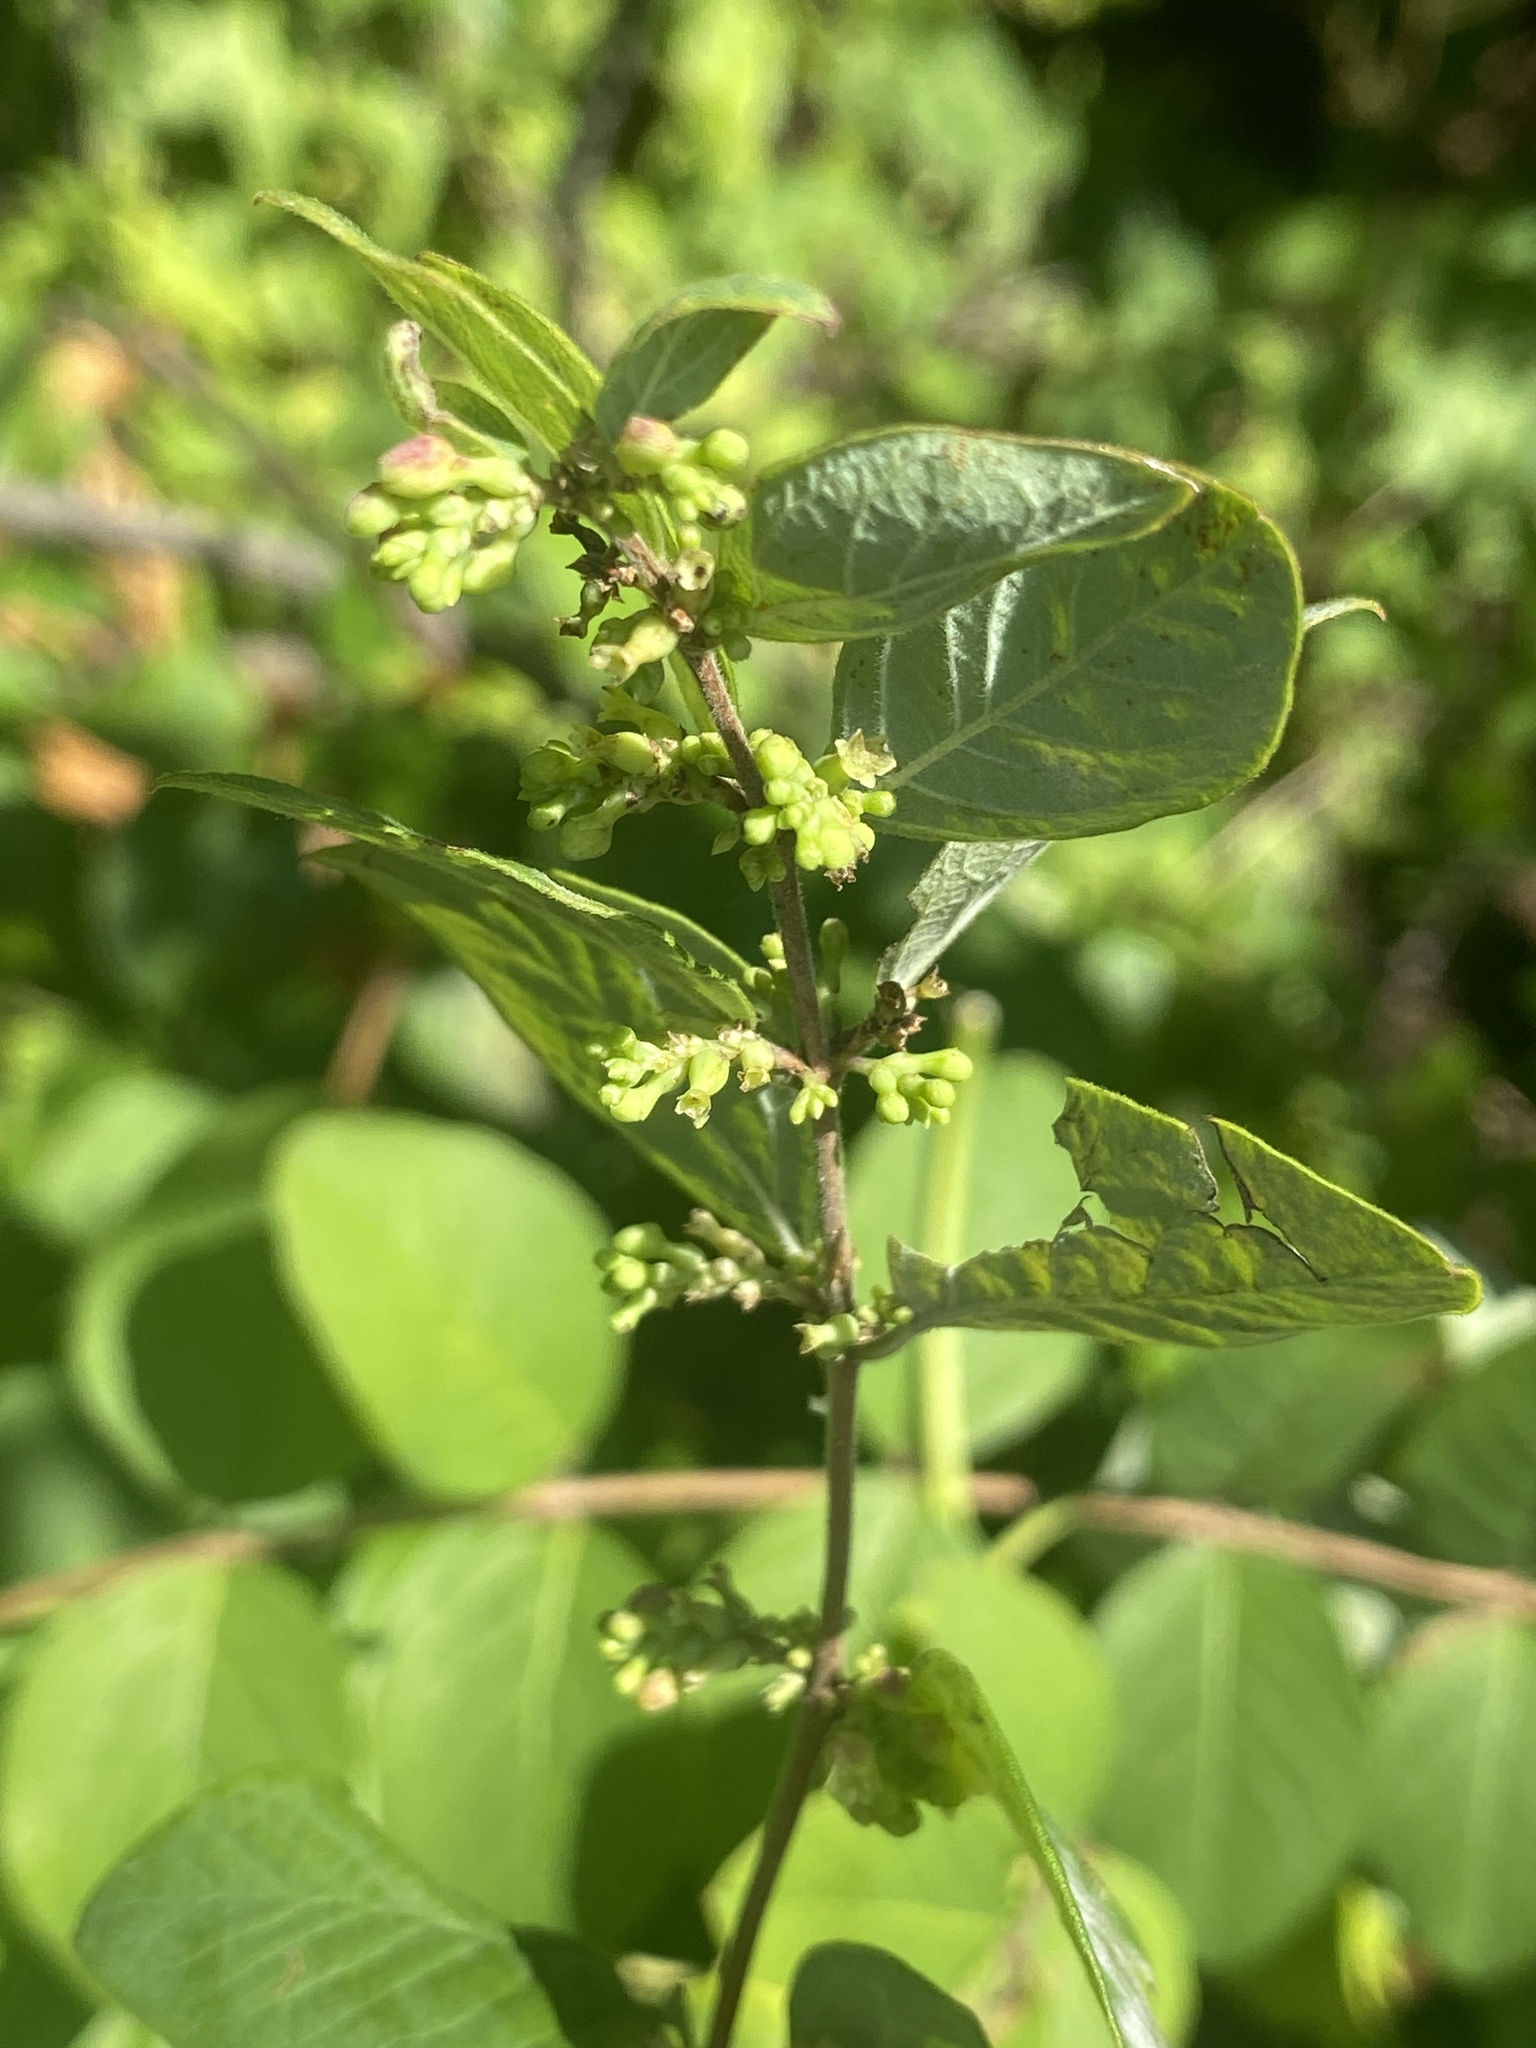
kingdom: Plantae
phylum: Tracheophyta
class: Magnoliopsida
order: Dipsacales
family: Caprifoliaceae
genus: Symphoricarpos
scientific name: Symphoricarpos orbiculatus
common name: Coralberry
